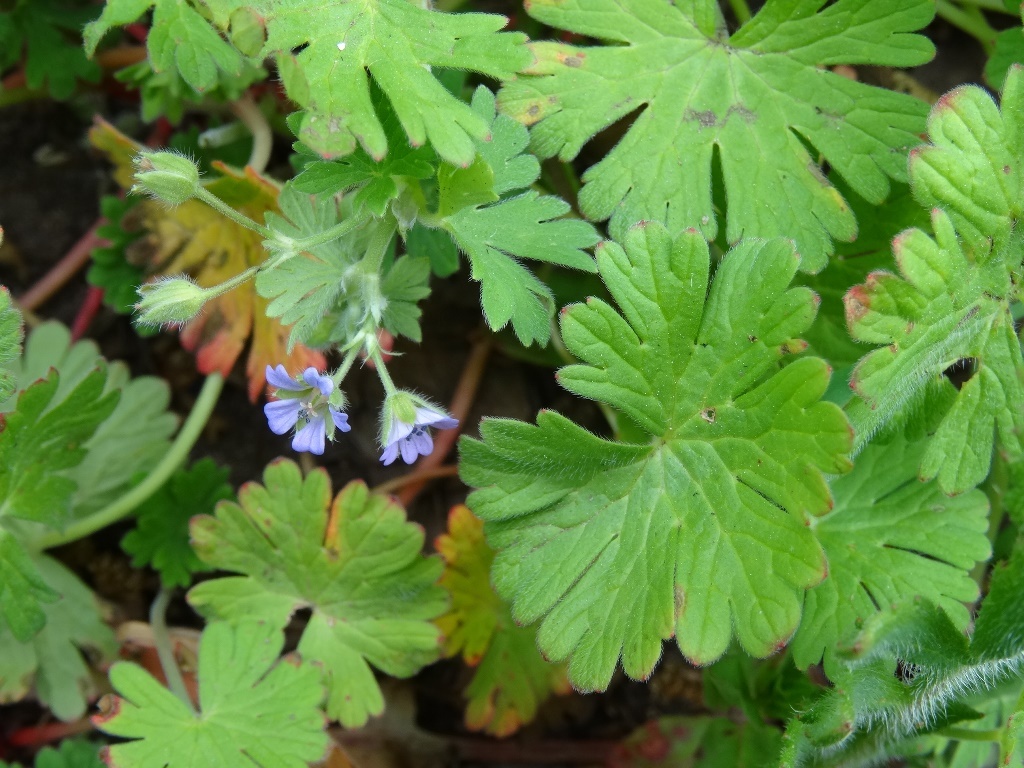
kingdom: Plantae
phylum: Tracheophyta
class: Magnoliopsida
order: Geraniales
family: Geraniaceae
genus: Geranium
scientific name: Geranium pusillum
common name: Small geranium
